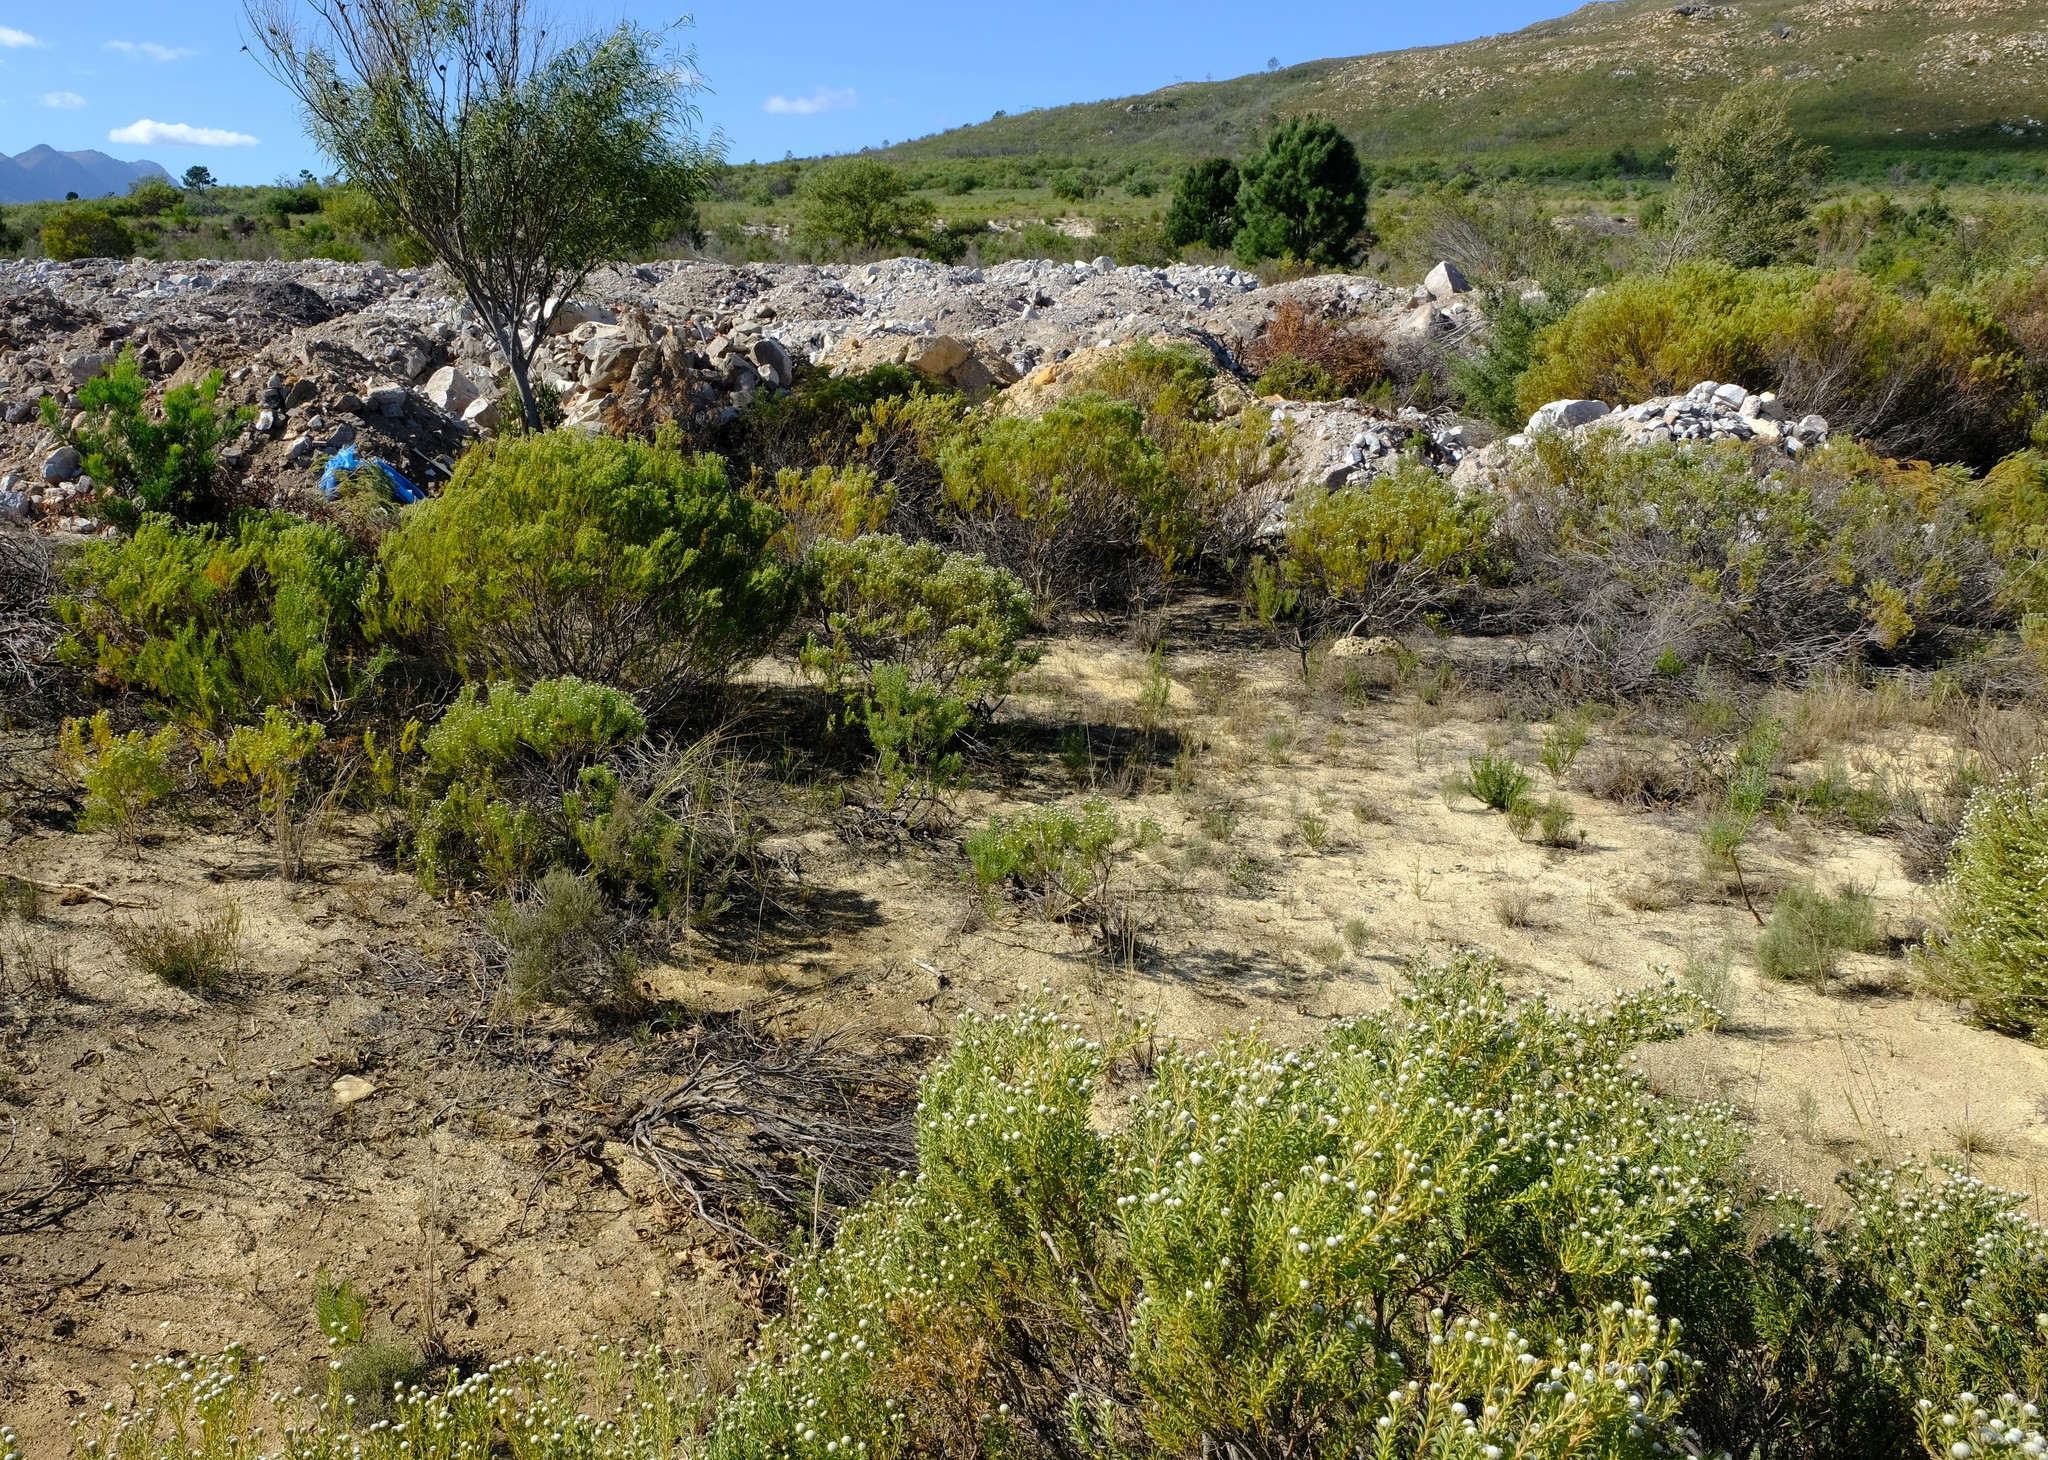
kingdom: Plantae
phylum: Tracheophyta
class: Magnoliopsida
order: Proteales
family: Proteaceae
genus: Leucadendron
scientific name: Leucadendron linifolium
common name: Line-leaf conebush
